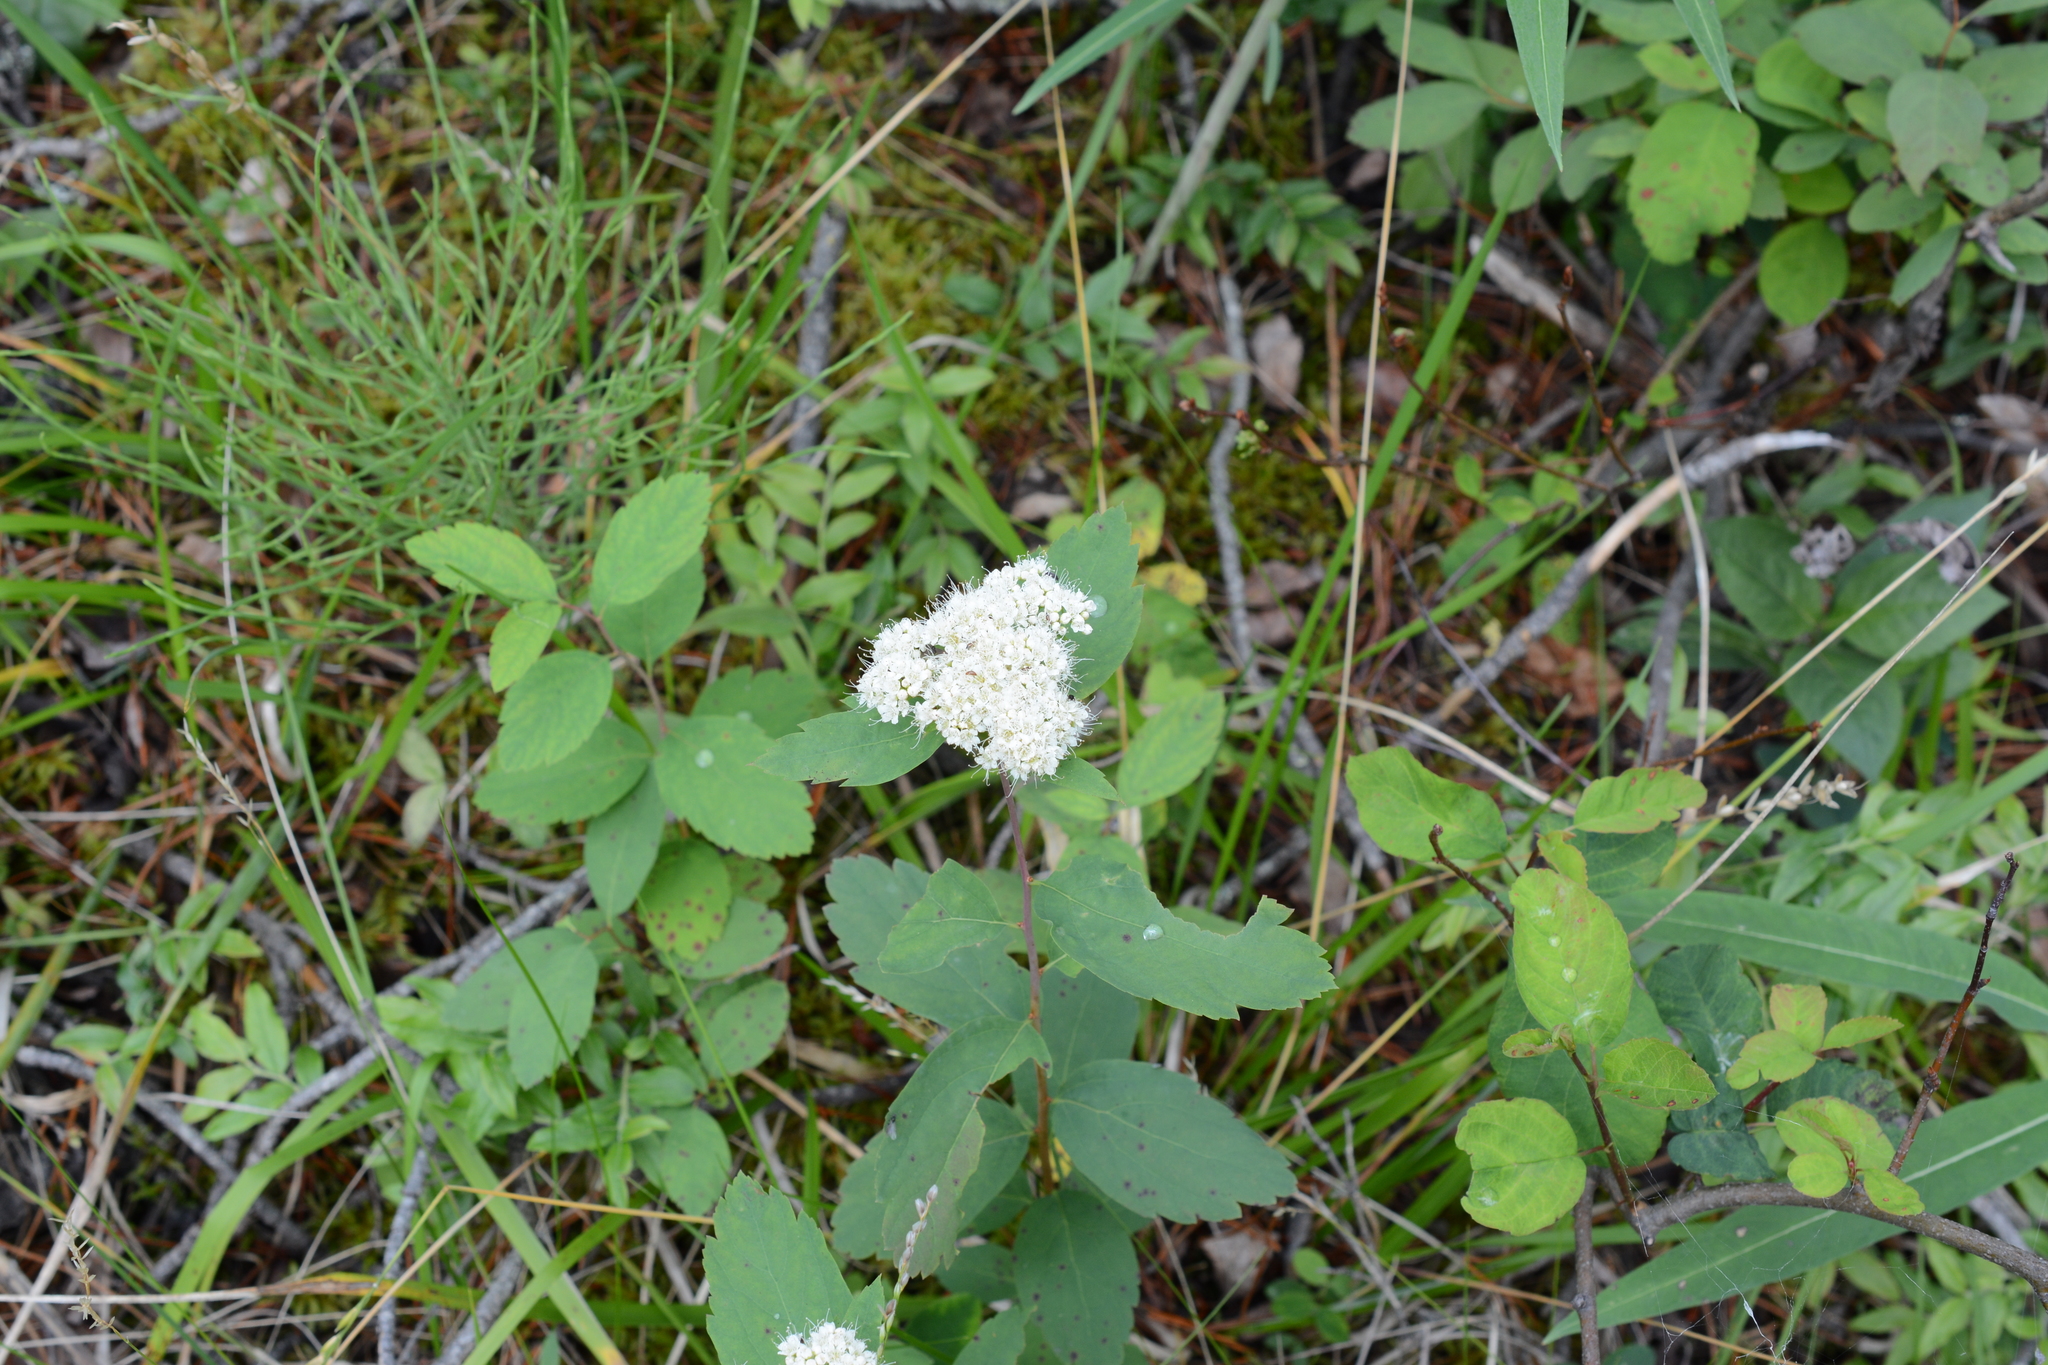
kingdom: Plantae
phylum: Tracheophyta
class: Magnoliopsida
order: Rosales
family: Rosaceae
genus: Spiraea
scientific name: Spiraea lucida
